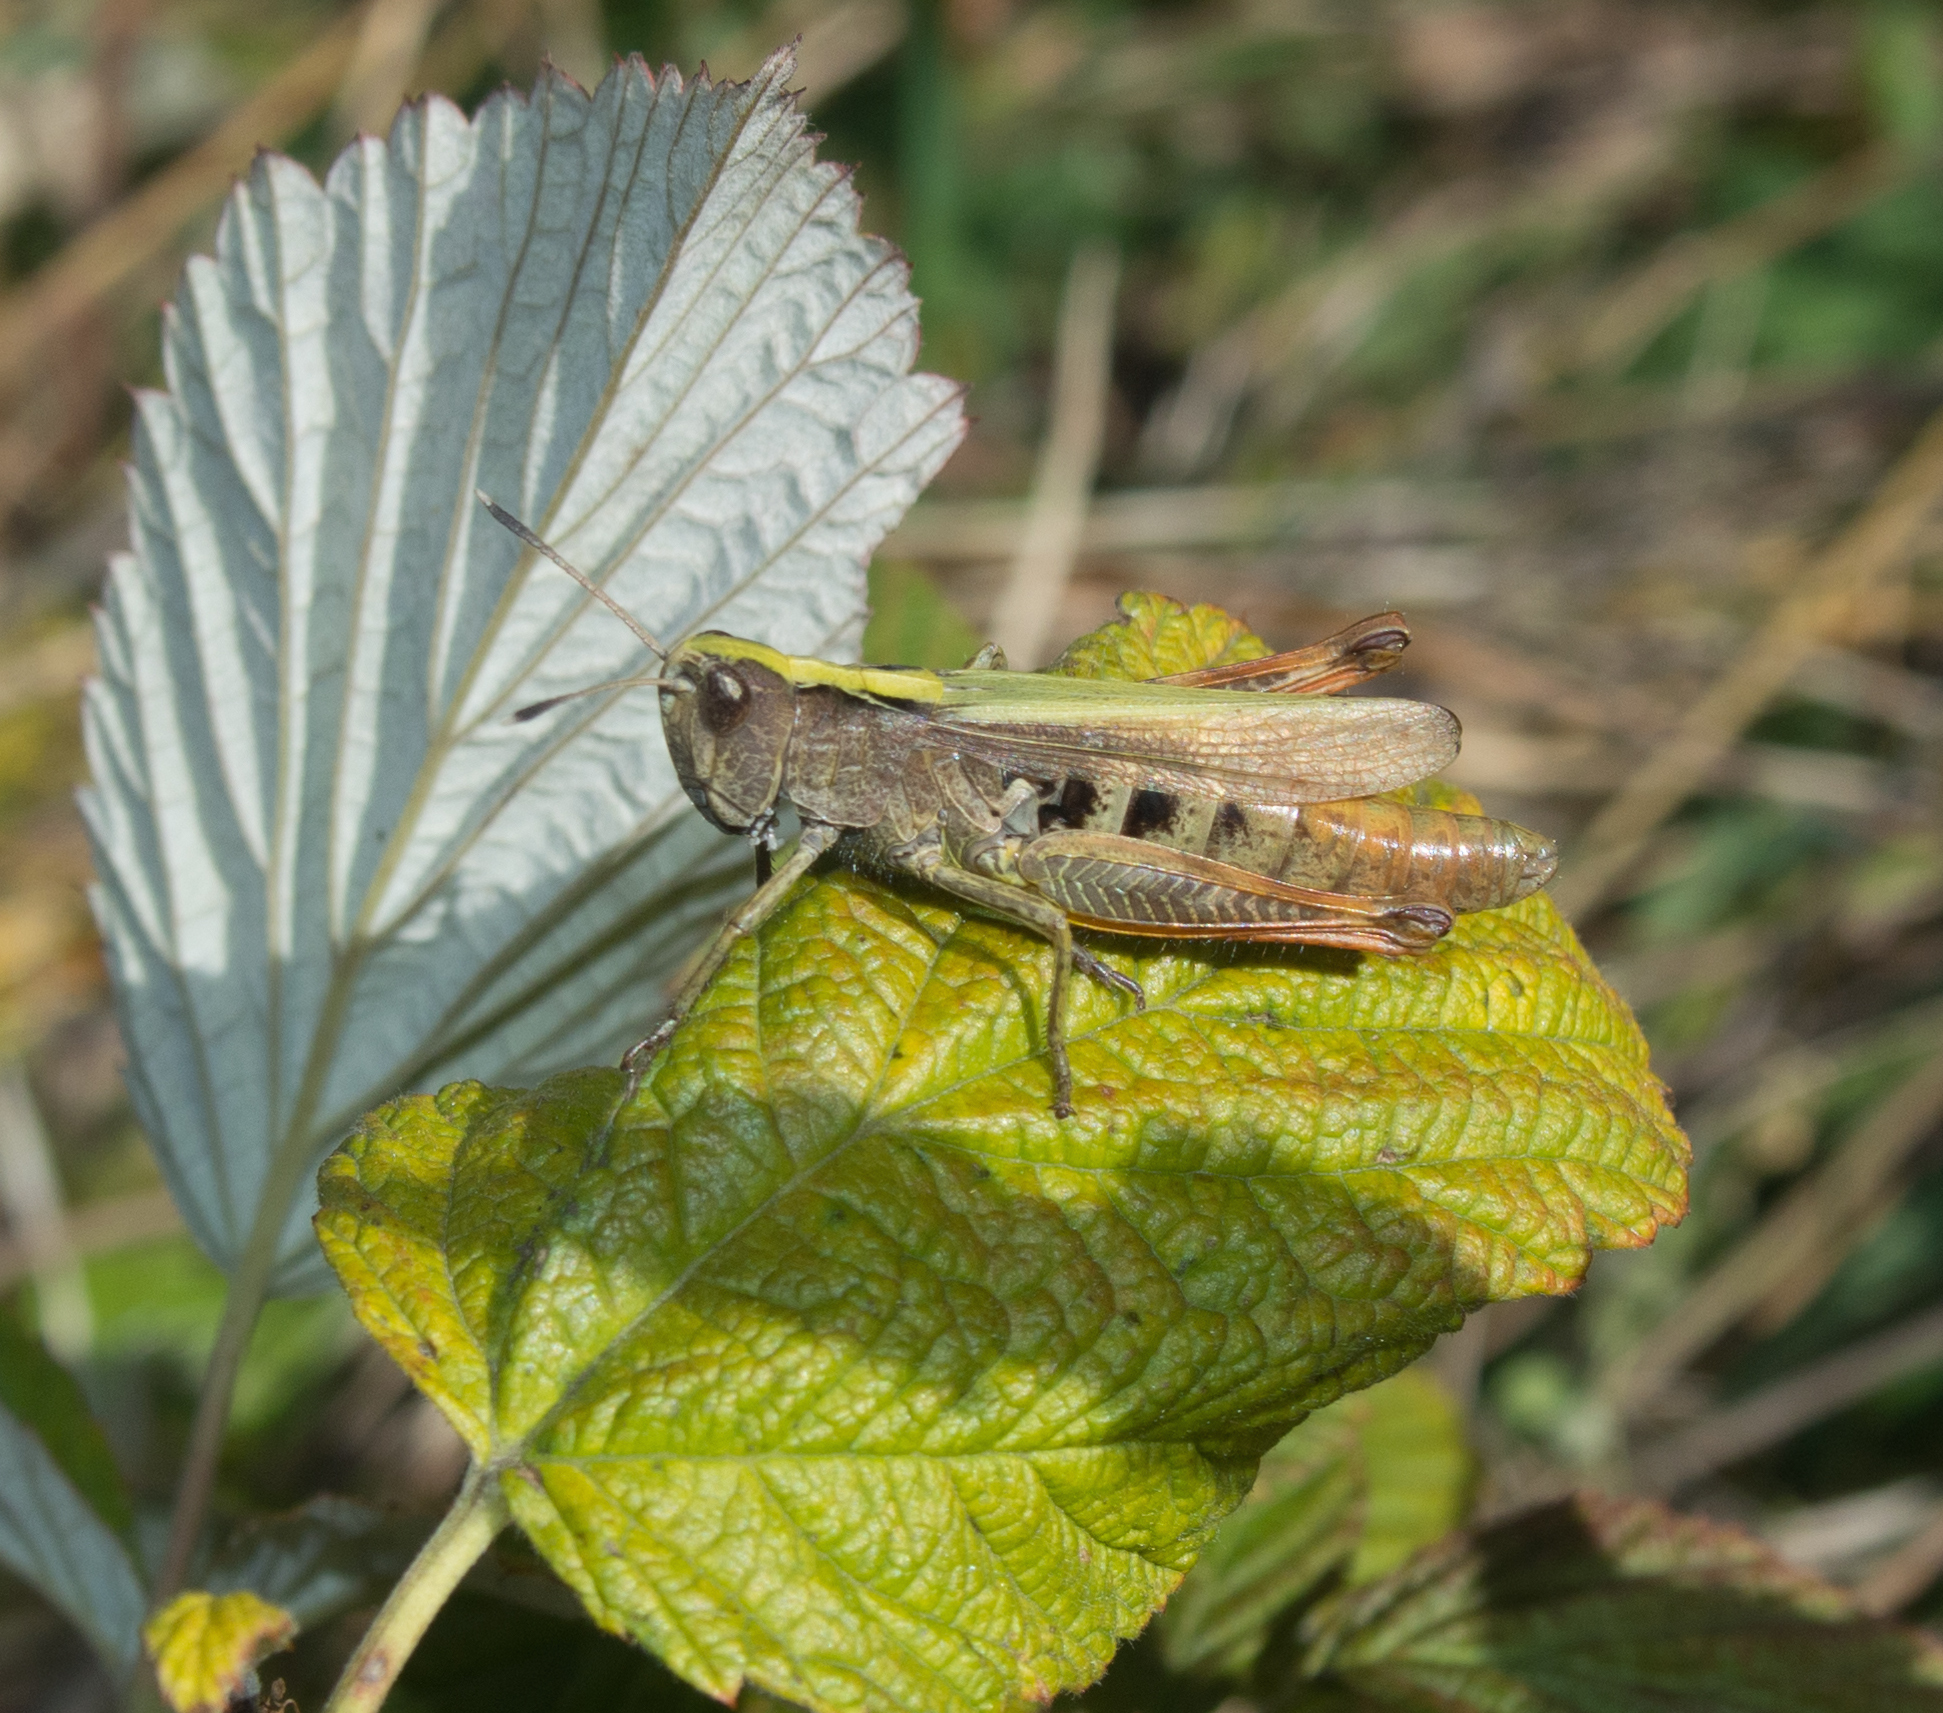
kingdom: Animalia
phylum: Arthropoda
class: Insecta
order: Orthoptera
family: Acrididae
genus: Gomphocerippus
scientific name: Gomphocerippus rufus
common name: Rufous grasshopper
